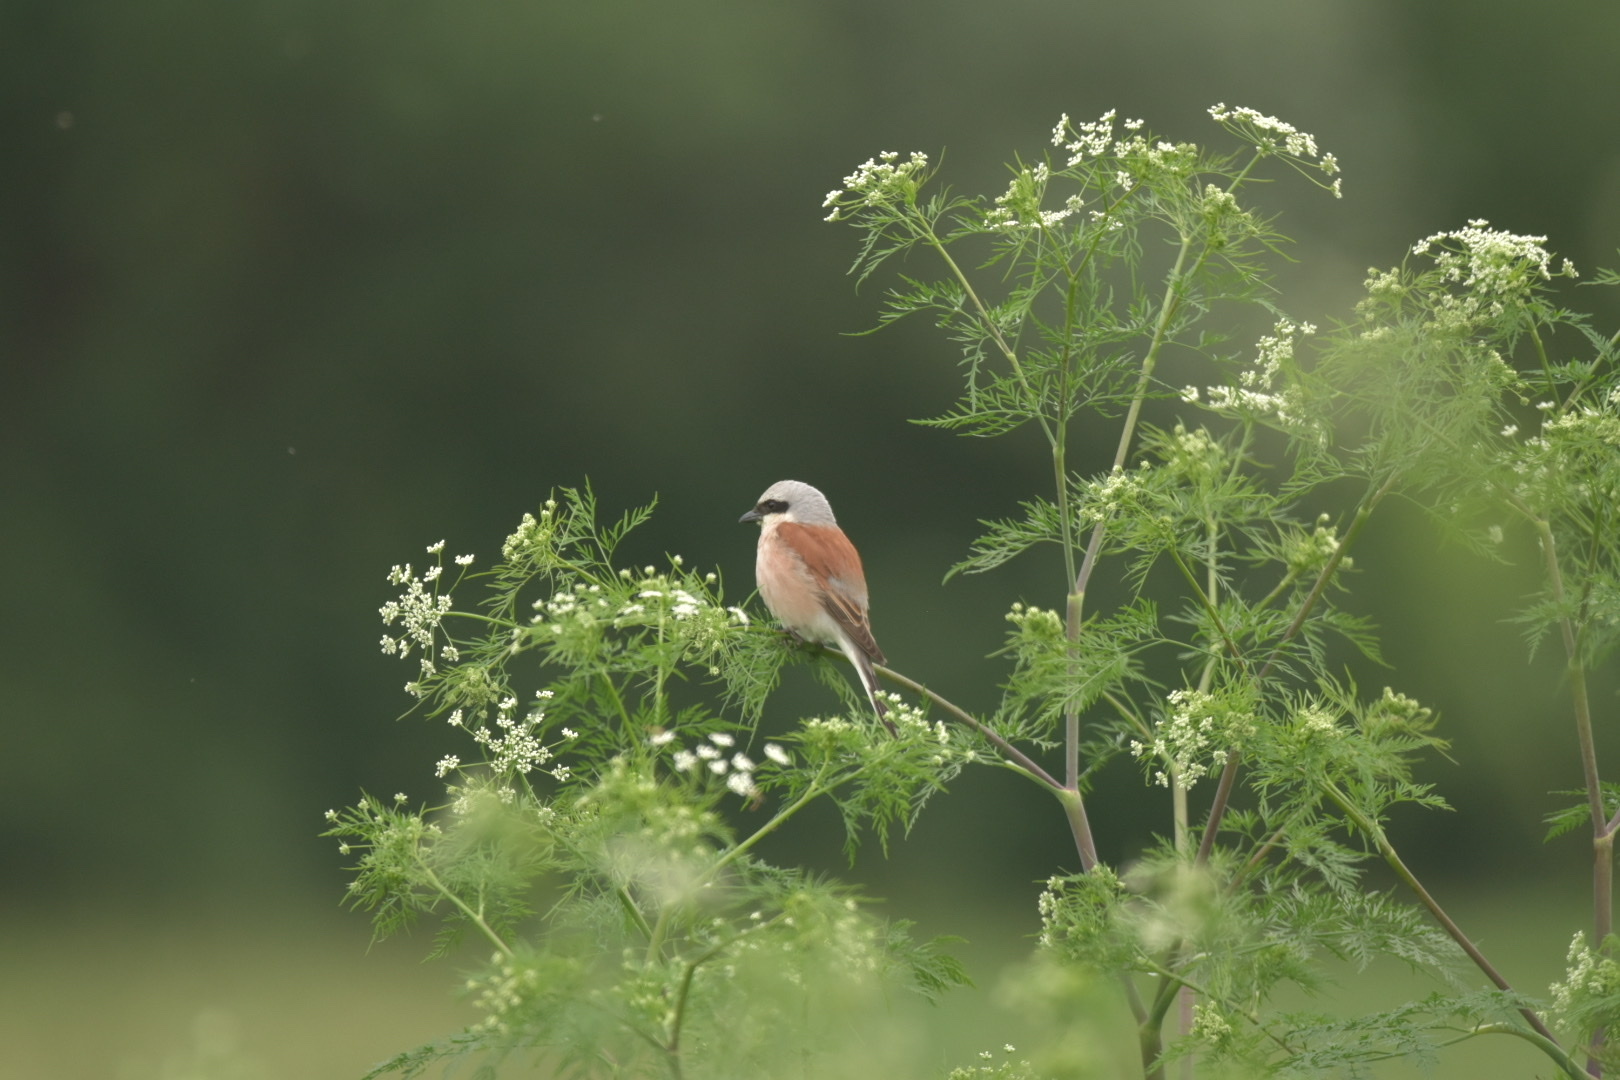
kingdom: Animalia
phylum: Chordata
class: Aves
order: Passeriformes
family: Laniidae
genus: Lanius
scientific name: Lanius collurio
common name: Red-backed shrike
